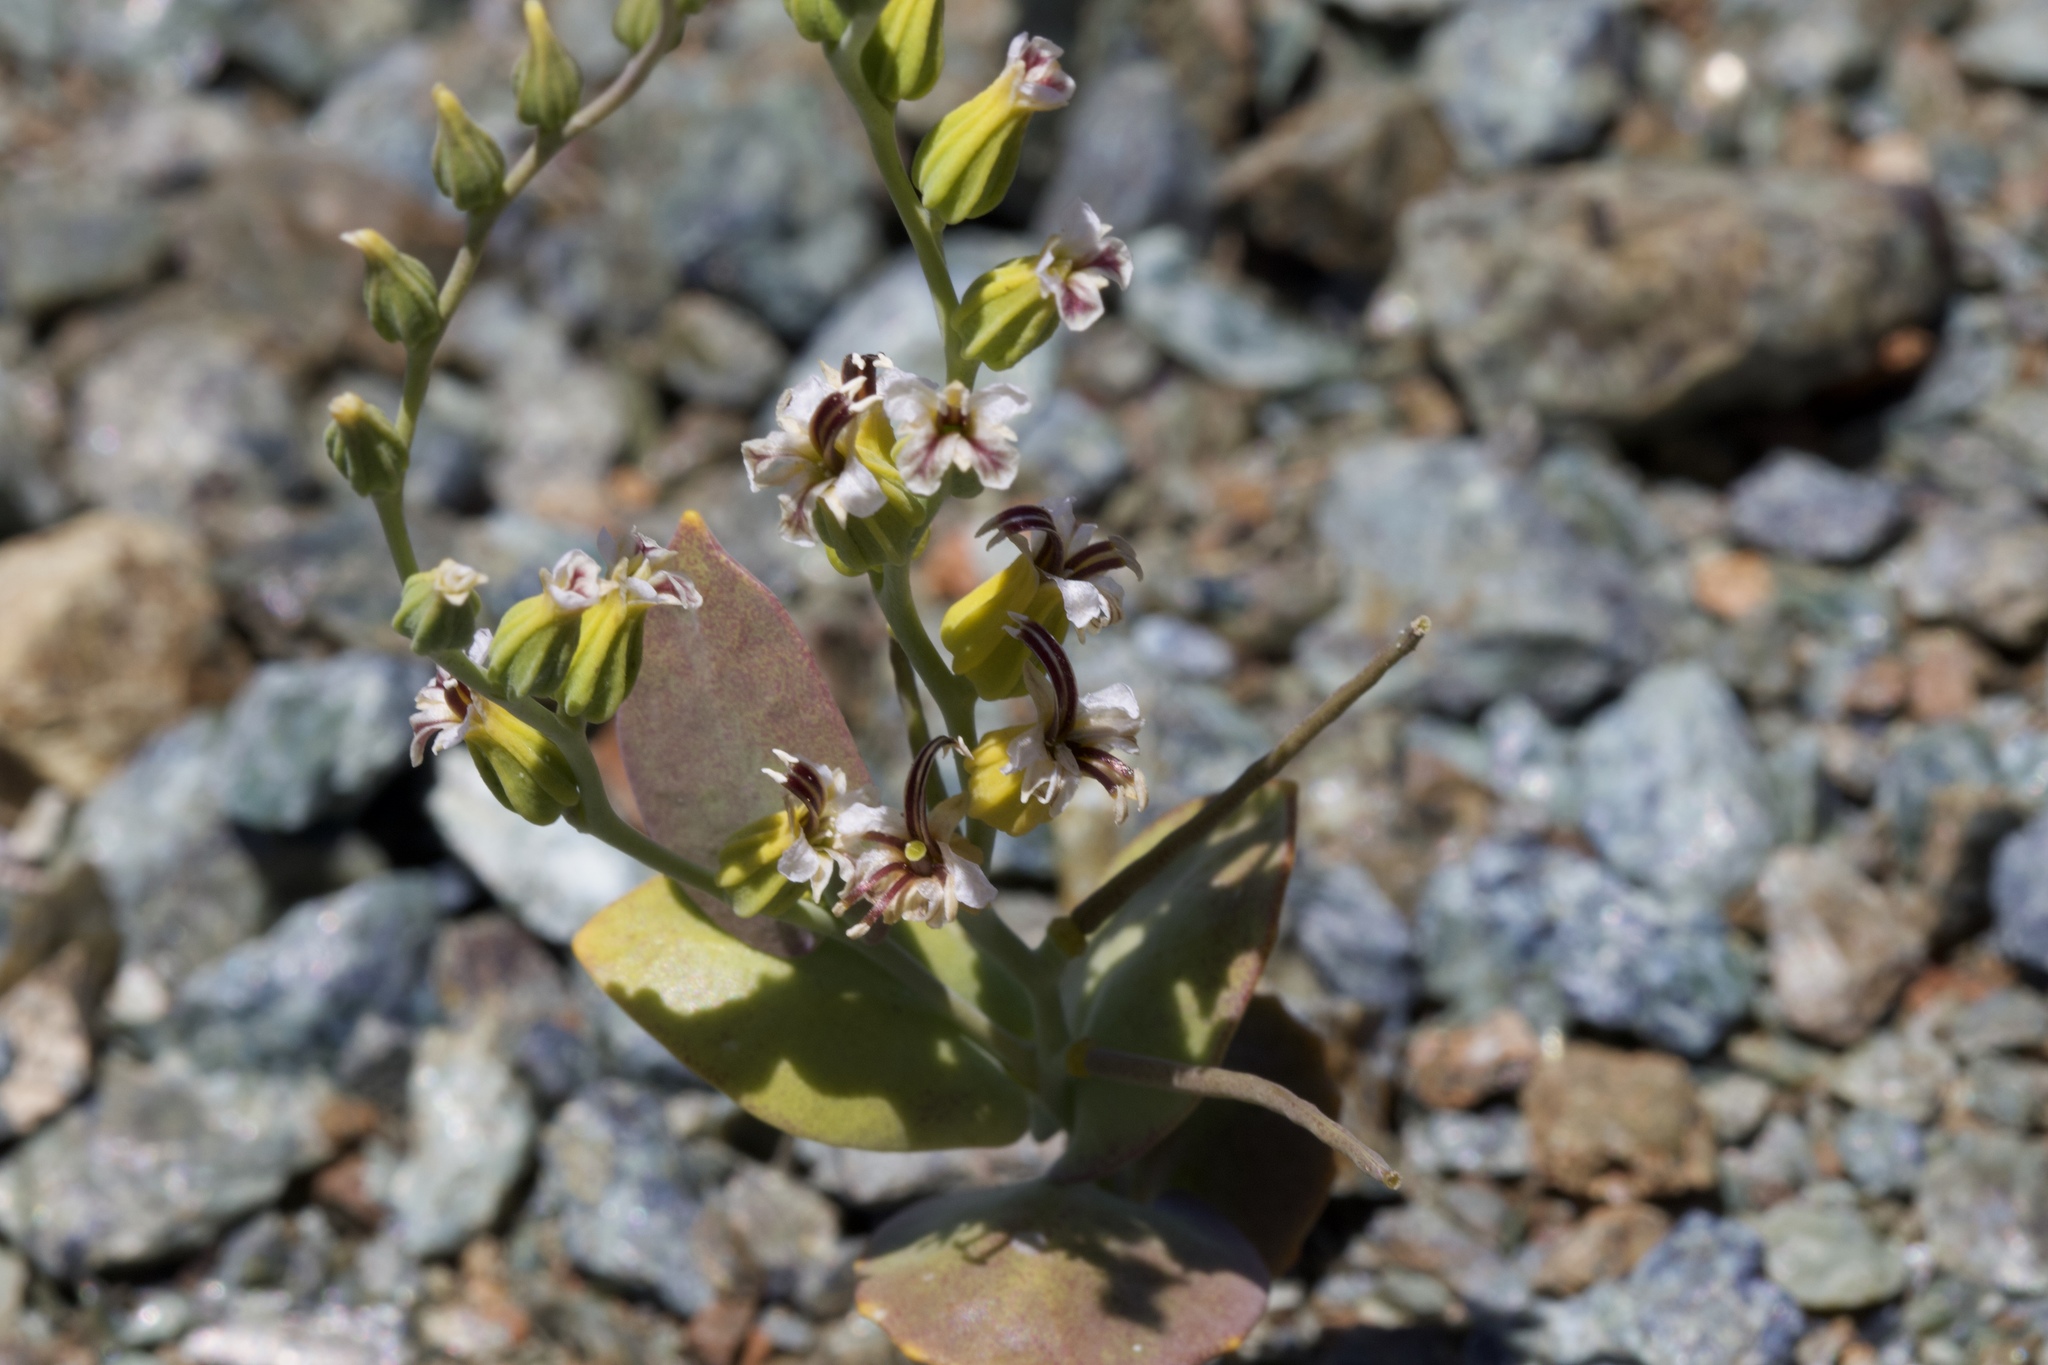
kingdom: Plantae
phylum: Tracheophyta
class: Magnoliopsida
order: Brassicales
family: Brassicaceae
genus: Streptanthus
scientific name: Streptanthus hesperidis
